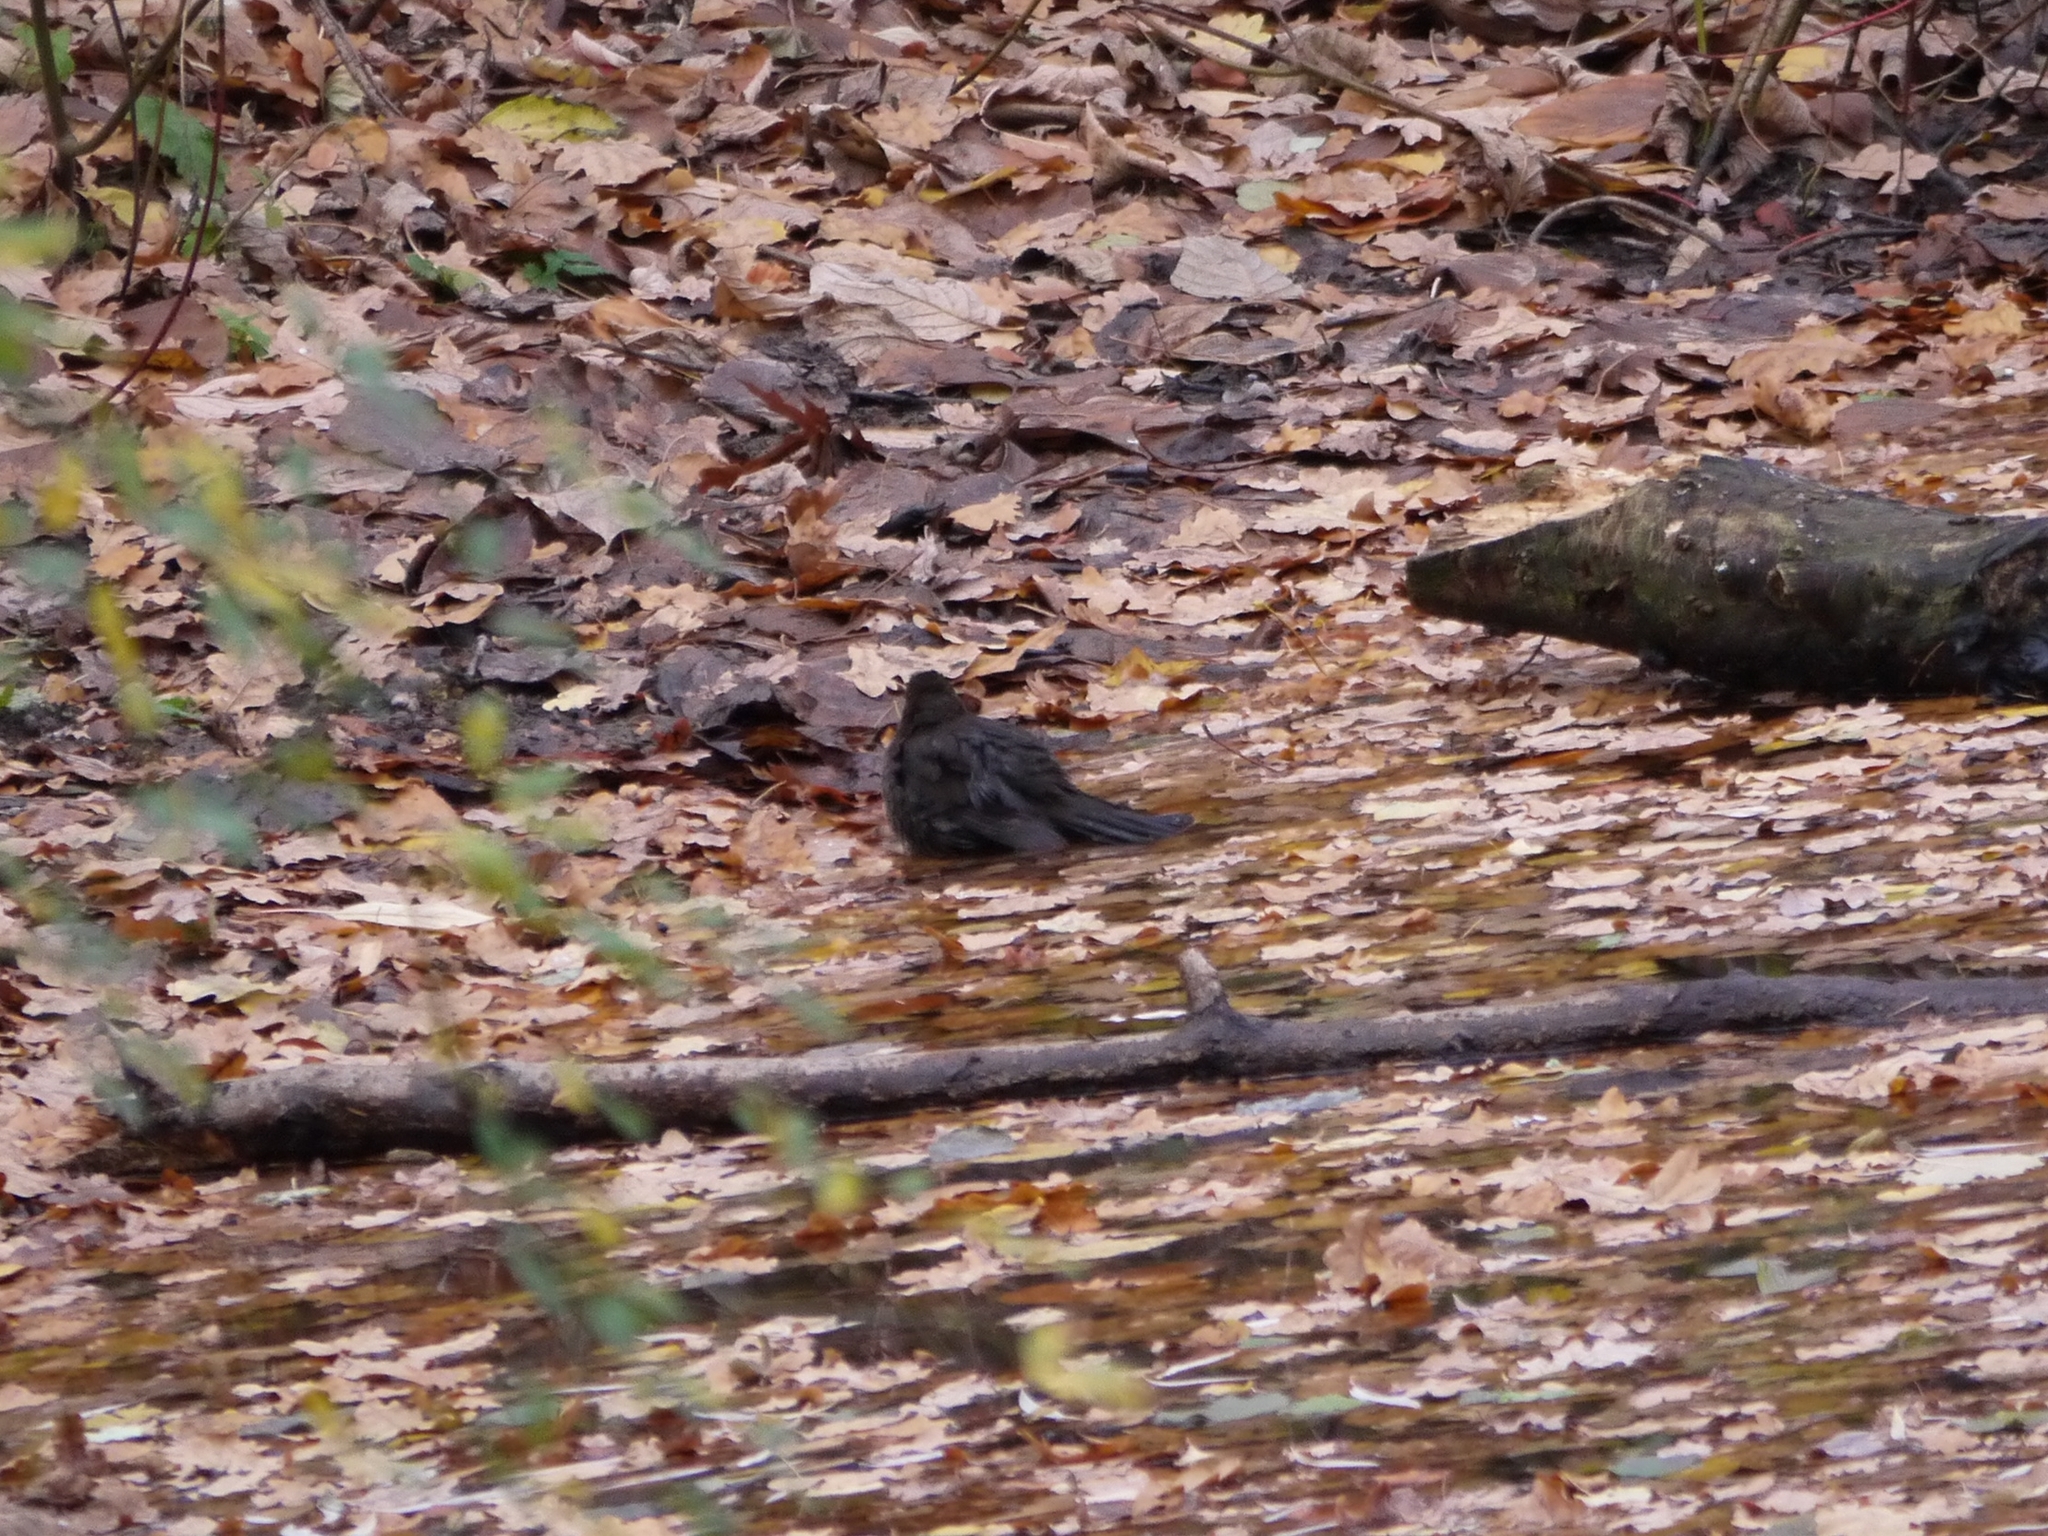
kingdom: Animalia
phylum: Chordata
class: Aves
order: Passeriformes
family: Turdidae
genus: Turdus
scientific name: Turdus merula
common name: Common blackbird
